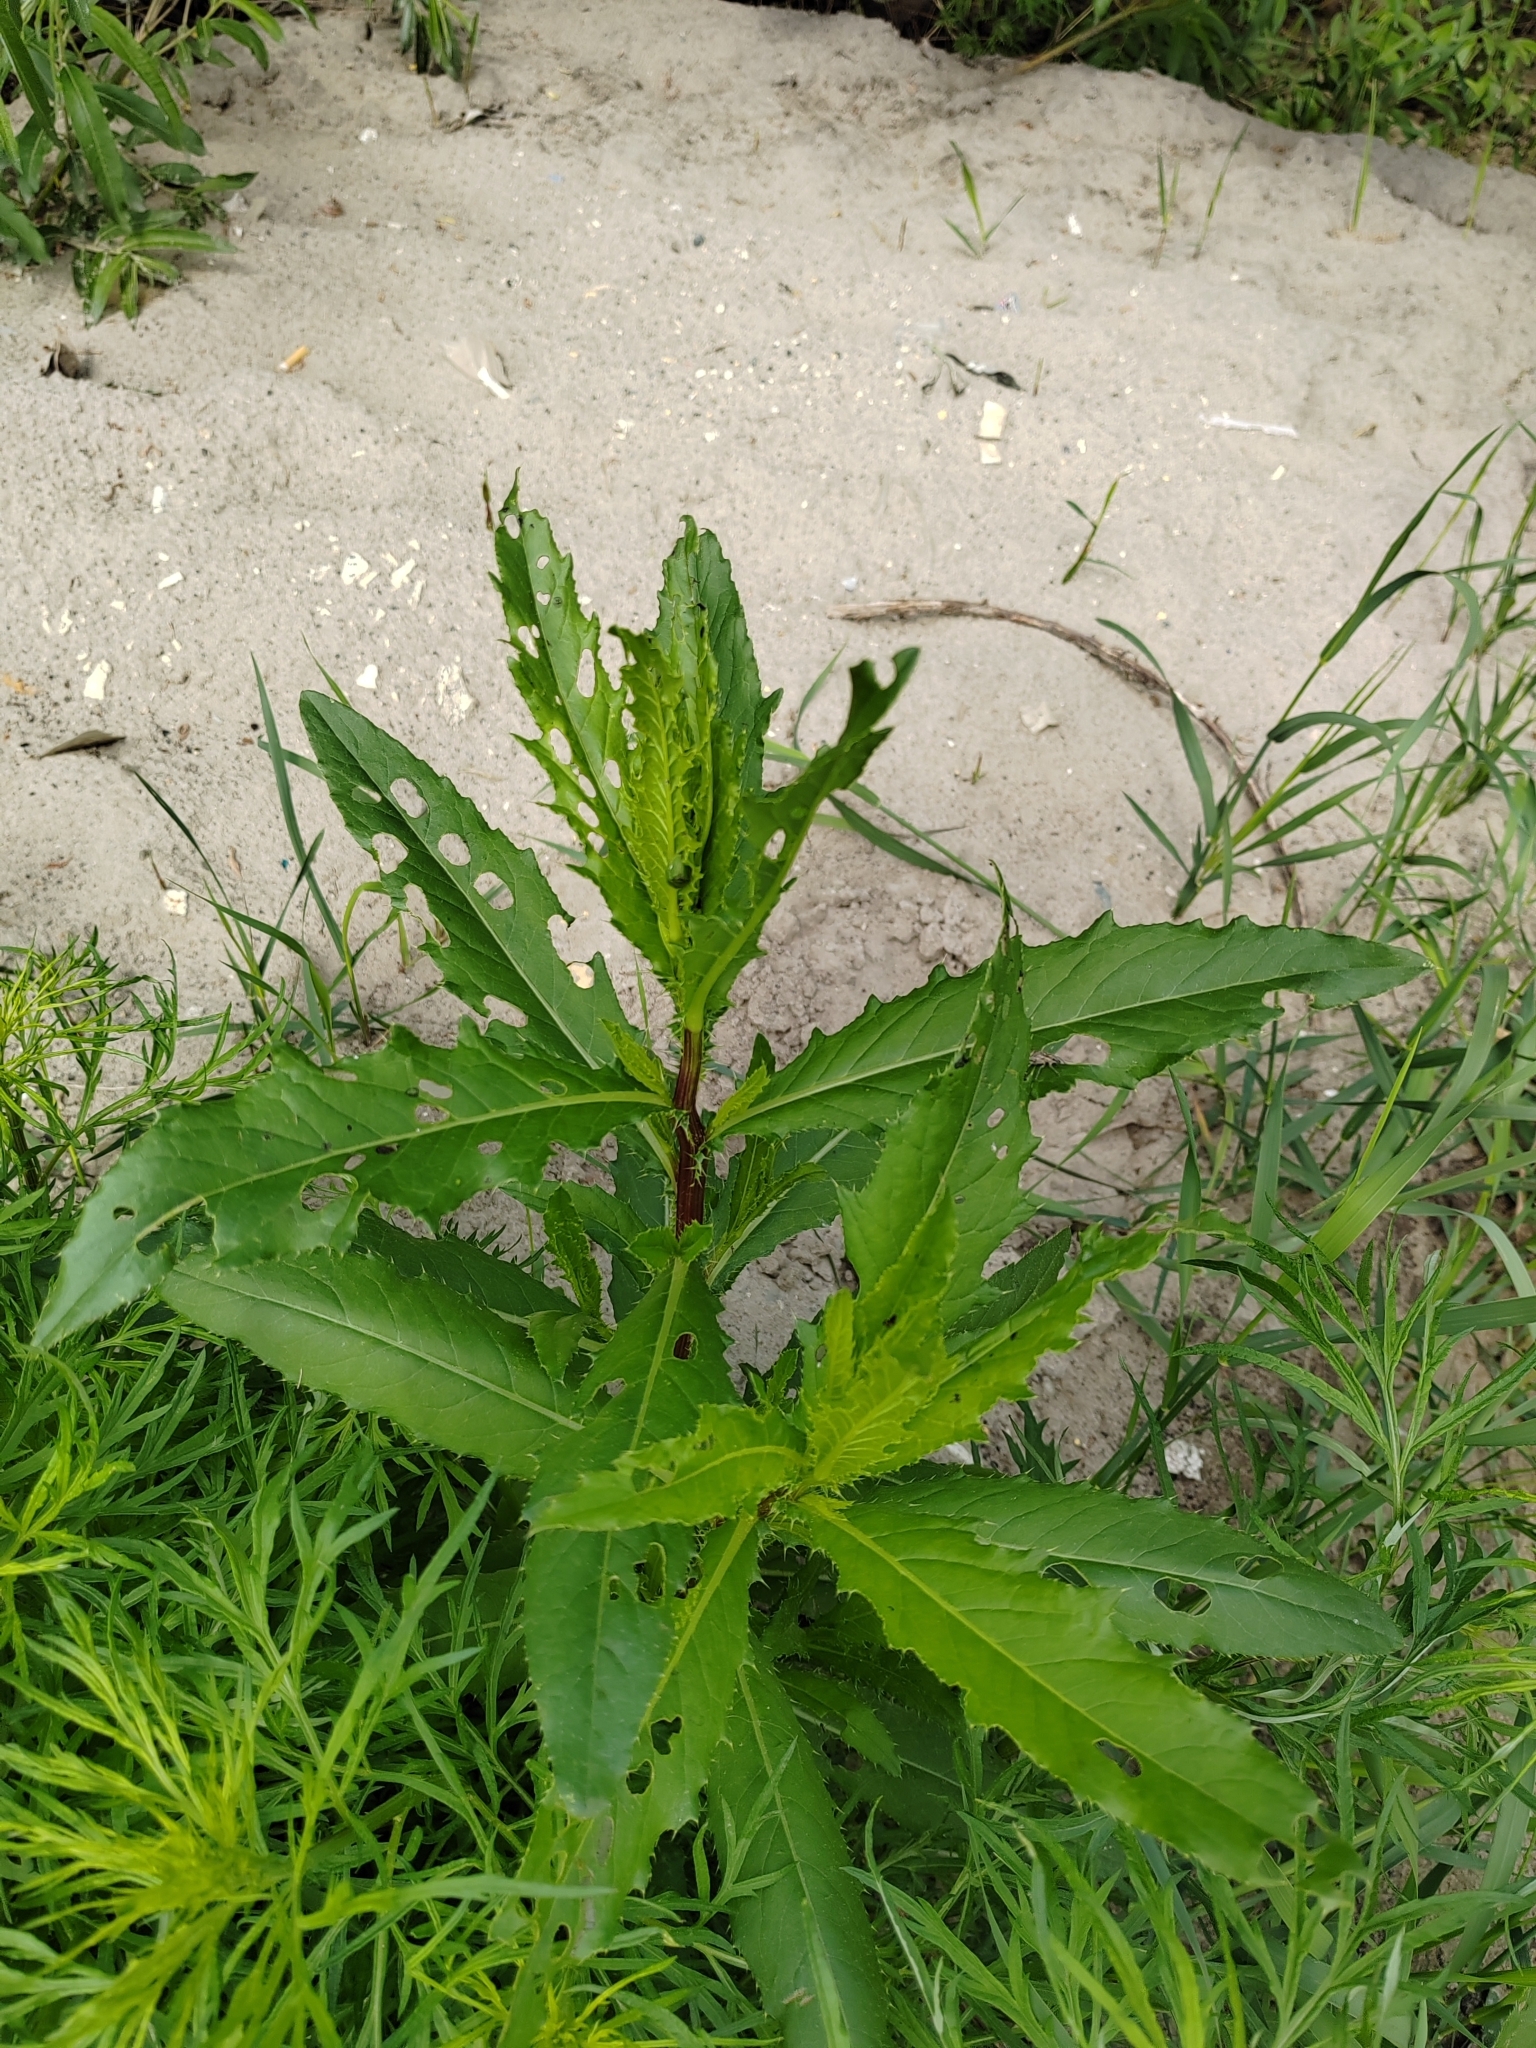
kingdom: Plantae
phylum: Tracheophyta
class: Magnoliopsida
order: Asterales
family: Asteraceae
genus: Cirsium
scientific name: Cirsium arvense
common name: Creeping thistle
